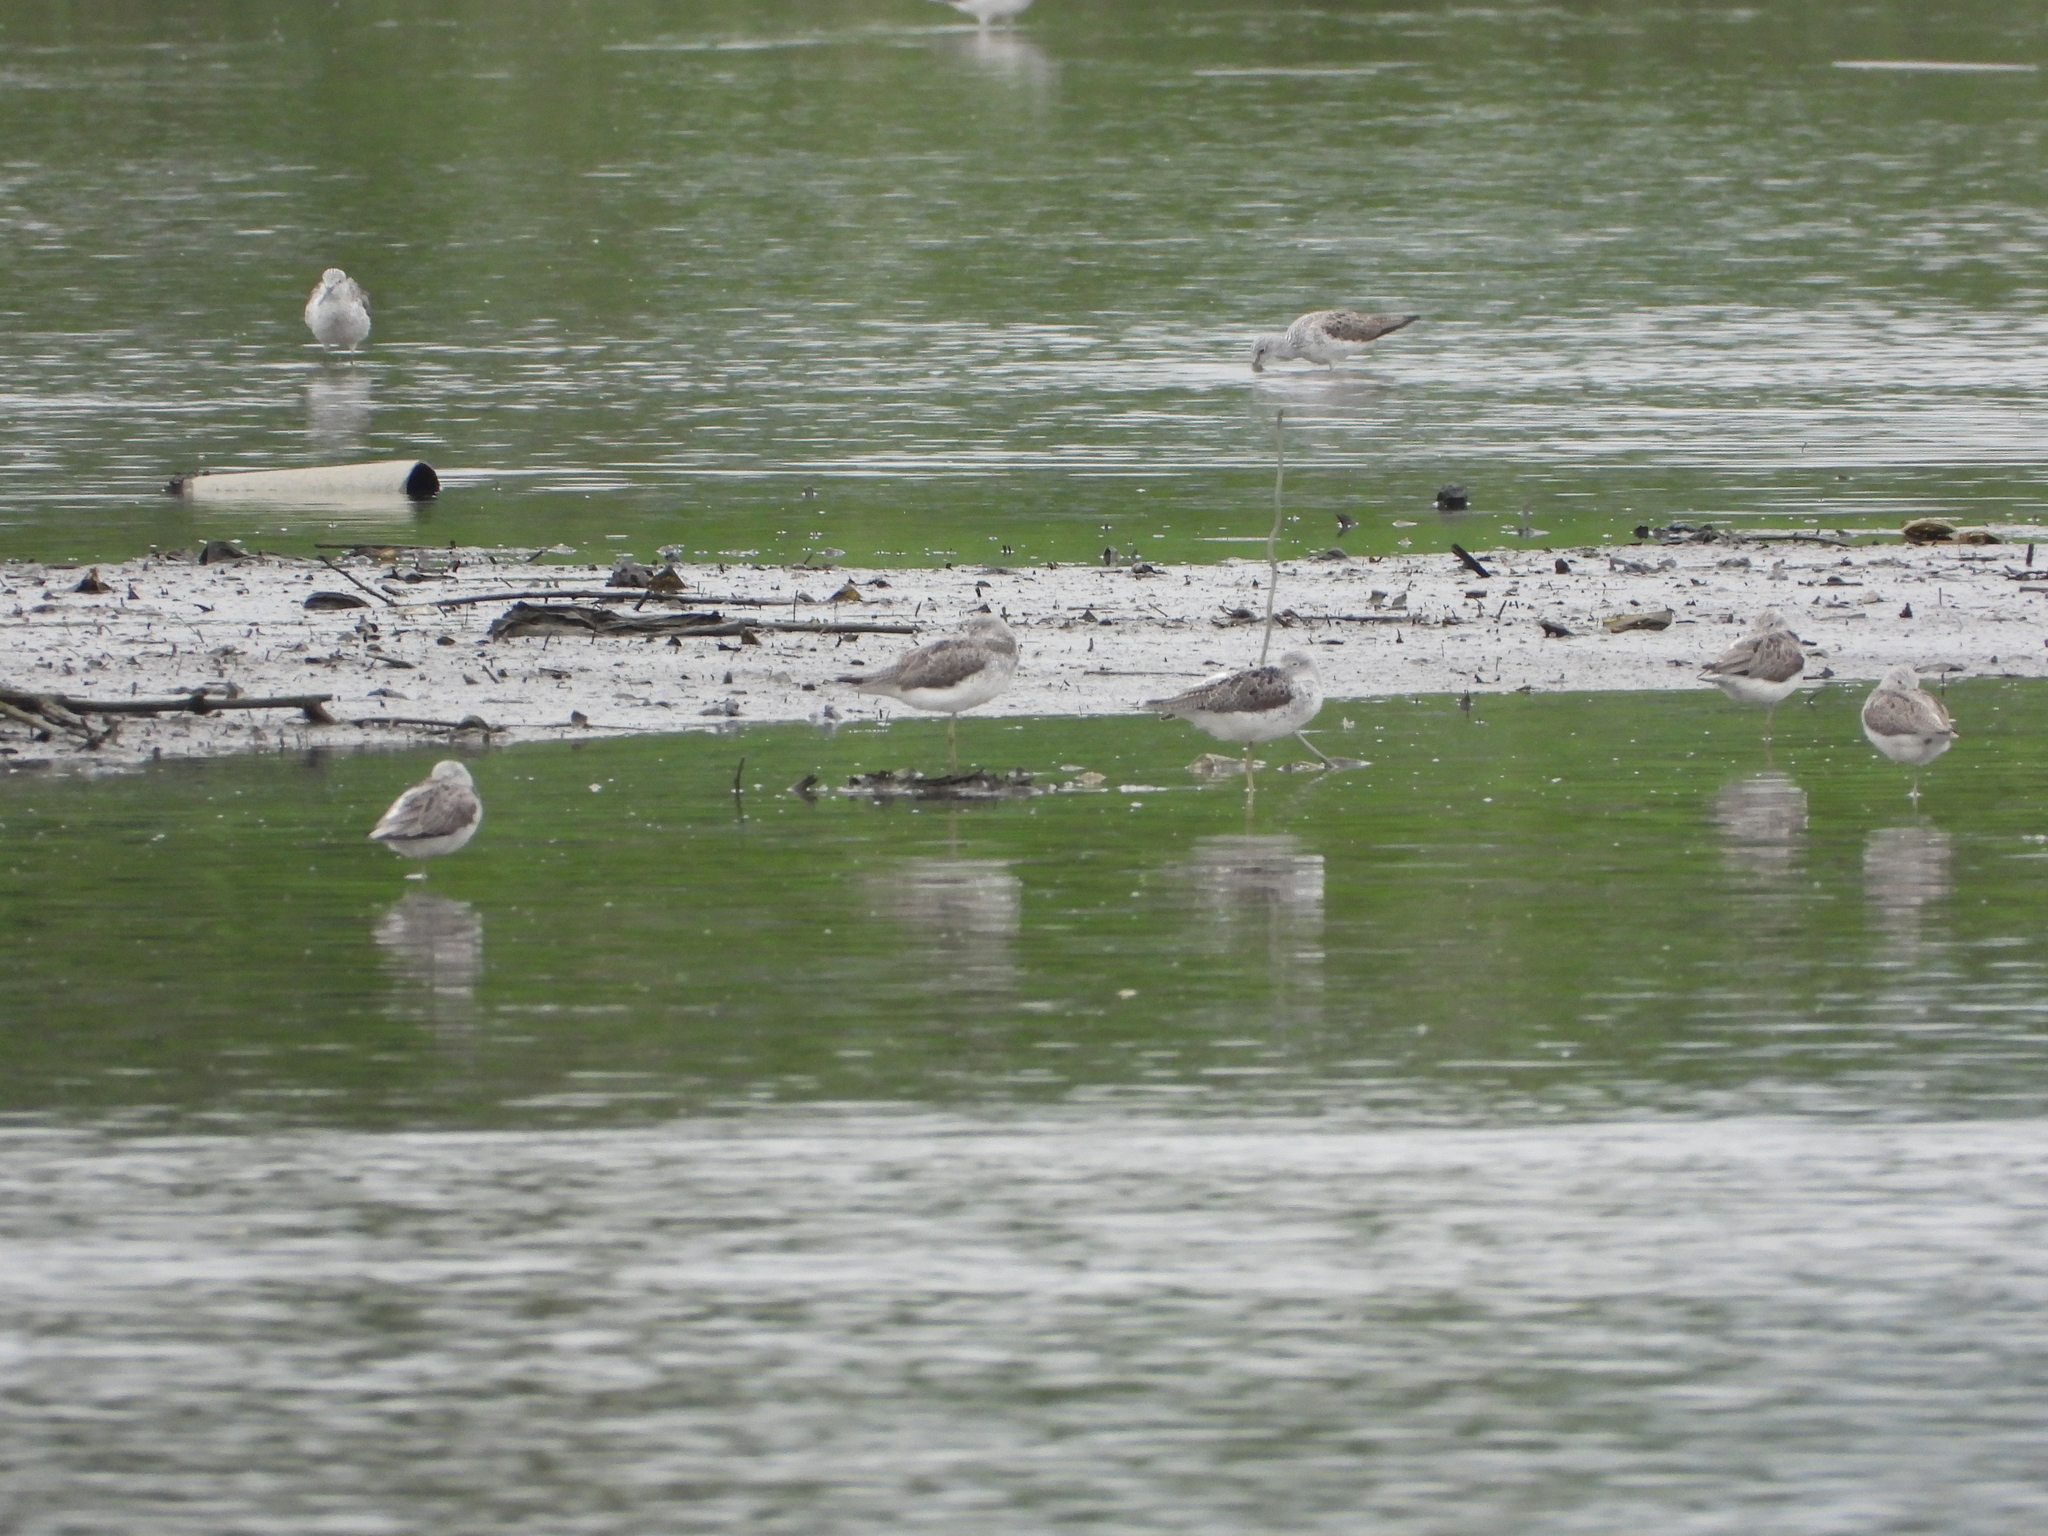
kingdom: Animalia
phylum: Chordata
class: Aves
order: Charadriiformes
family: Scolopacidae
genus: Tringa
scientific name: Tringa nebularia
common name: Common greenshank
